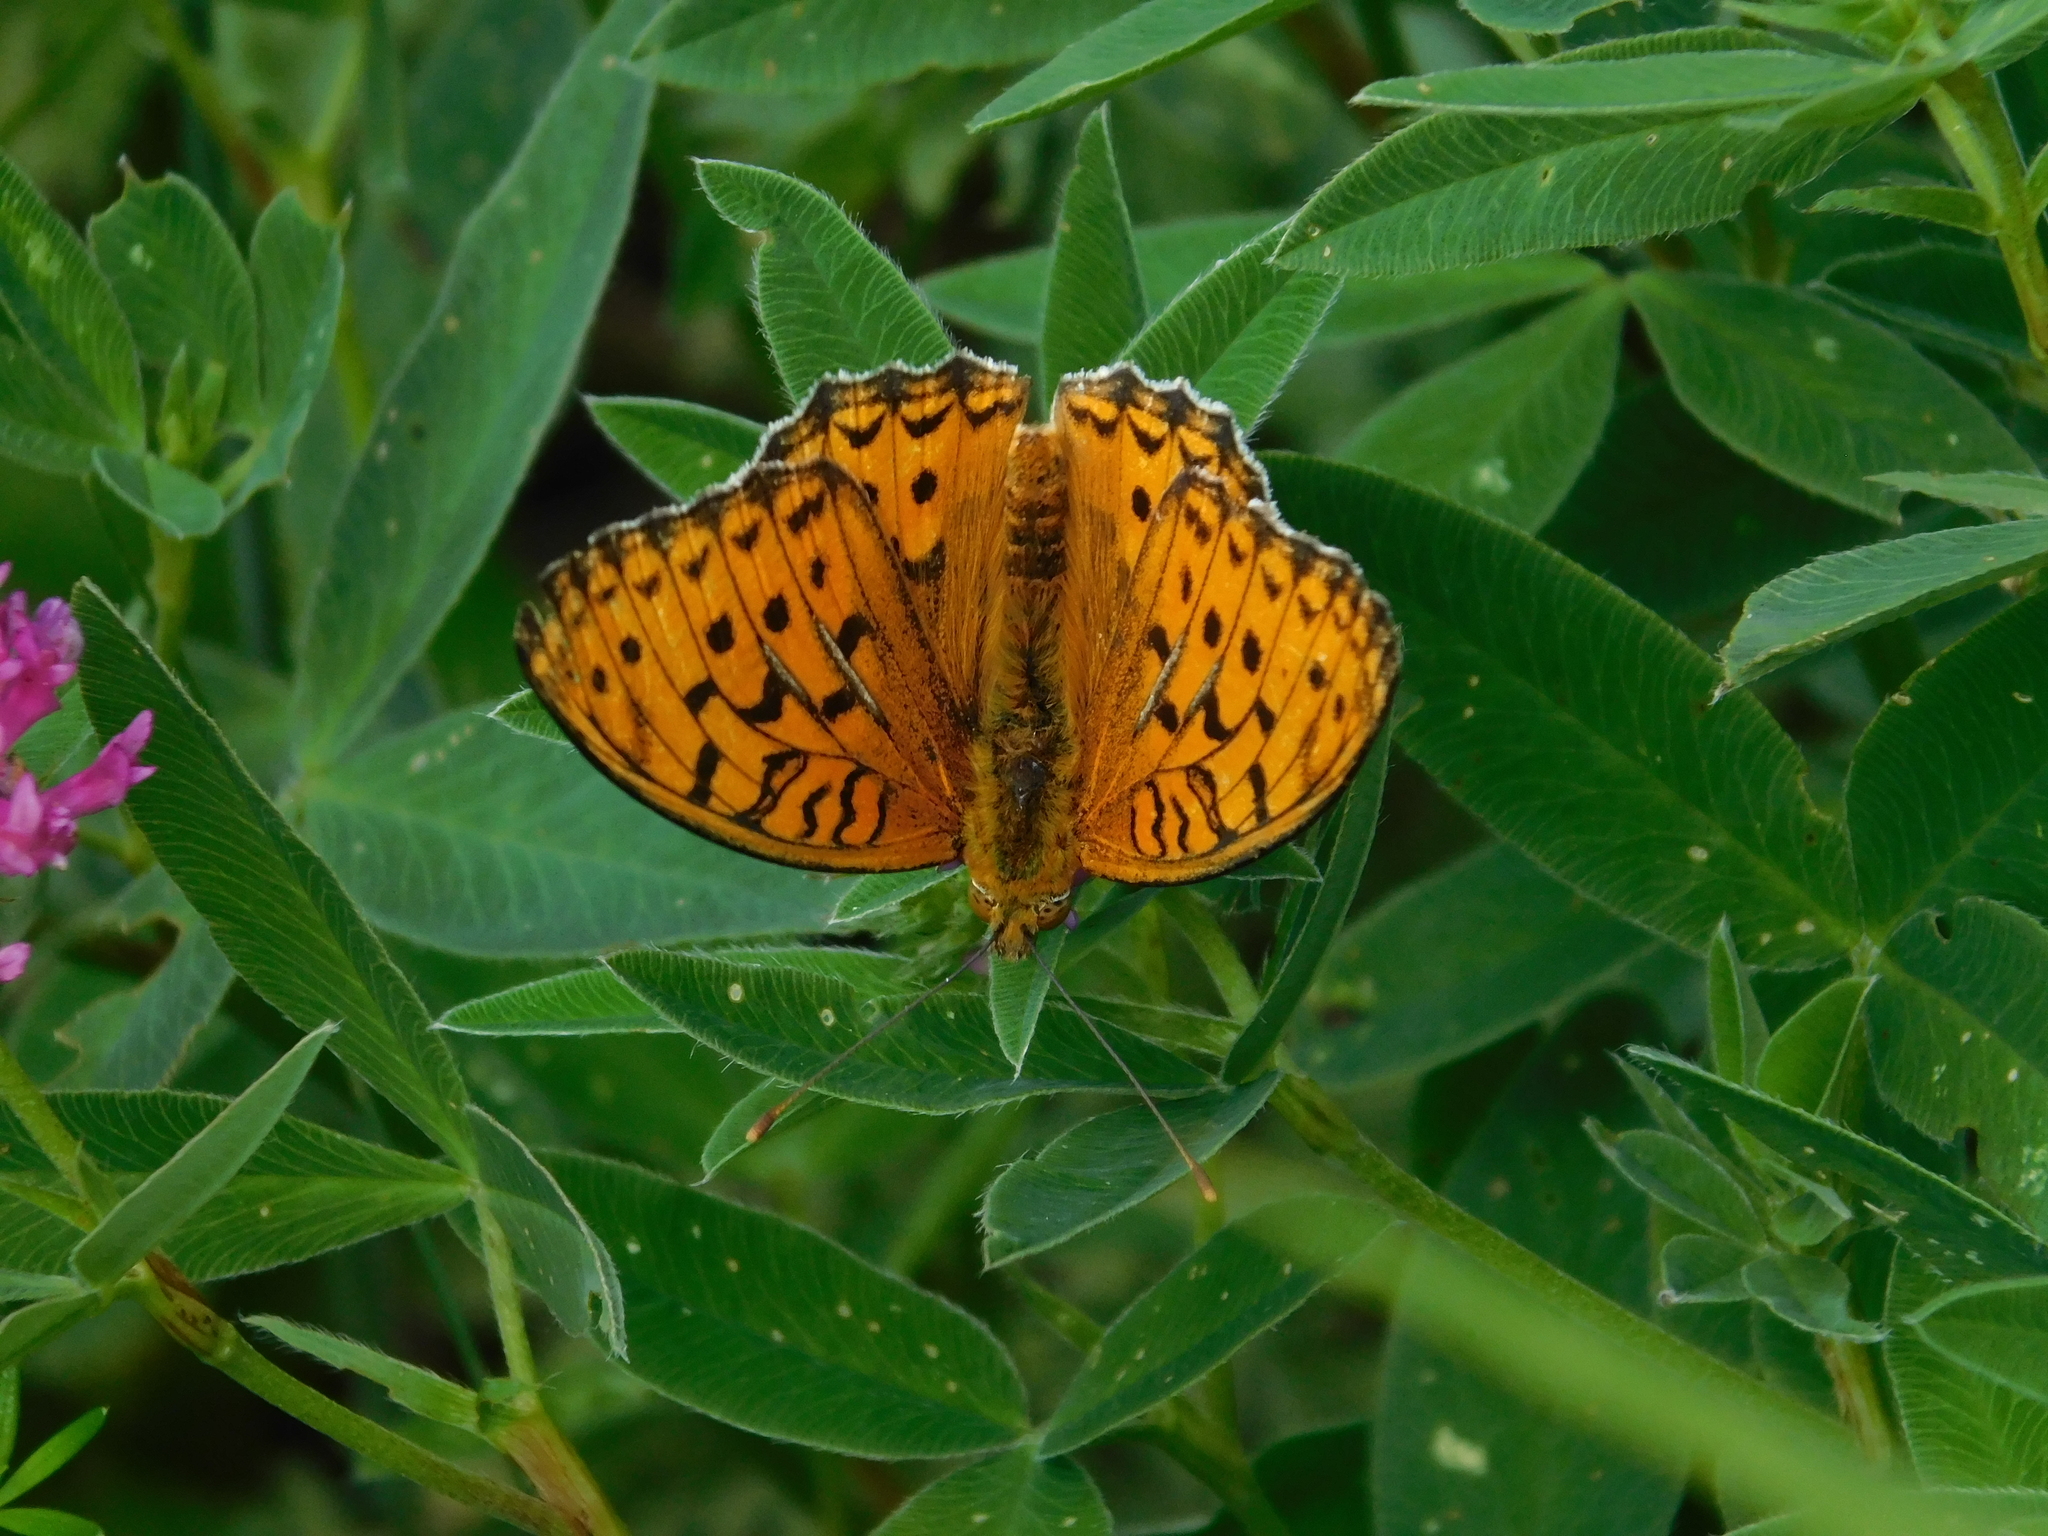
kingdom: Animalia
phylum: Arthropoda
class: Insecta
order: Lepidoptera
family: Nymphalidae
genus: Fabriciana
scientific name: Fabriciana adippe
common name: High brown fritillary
